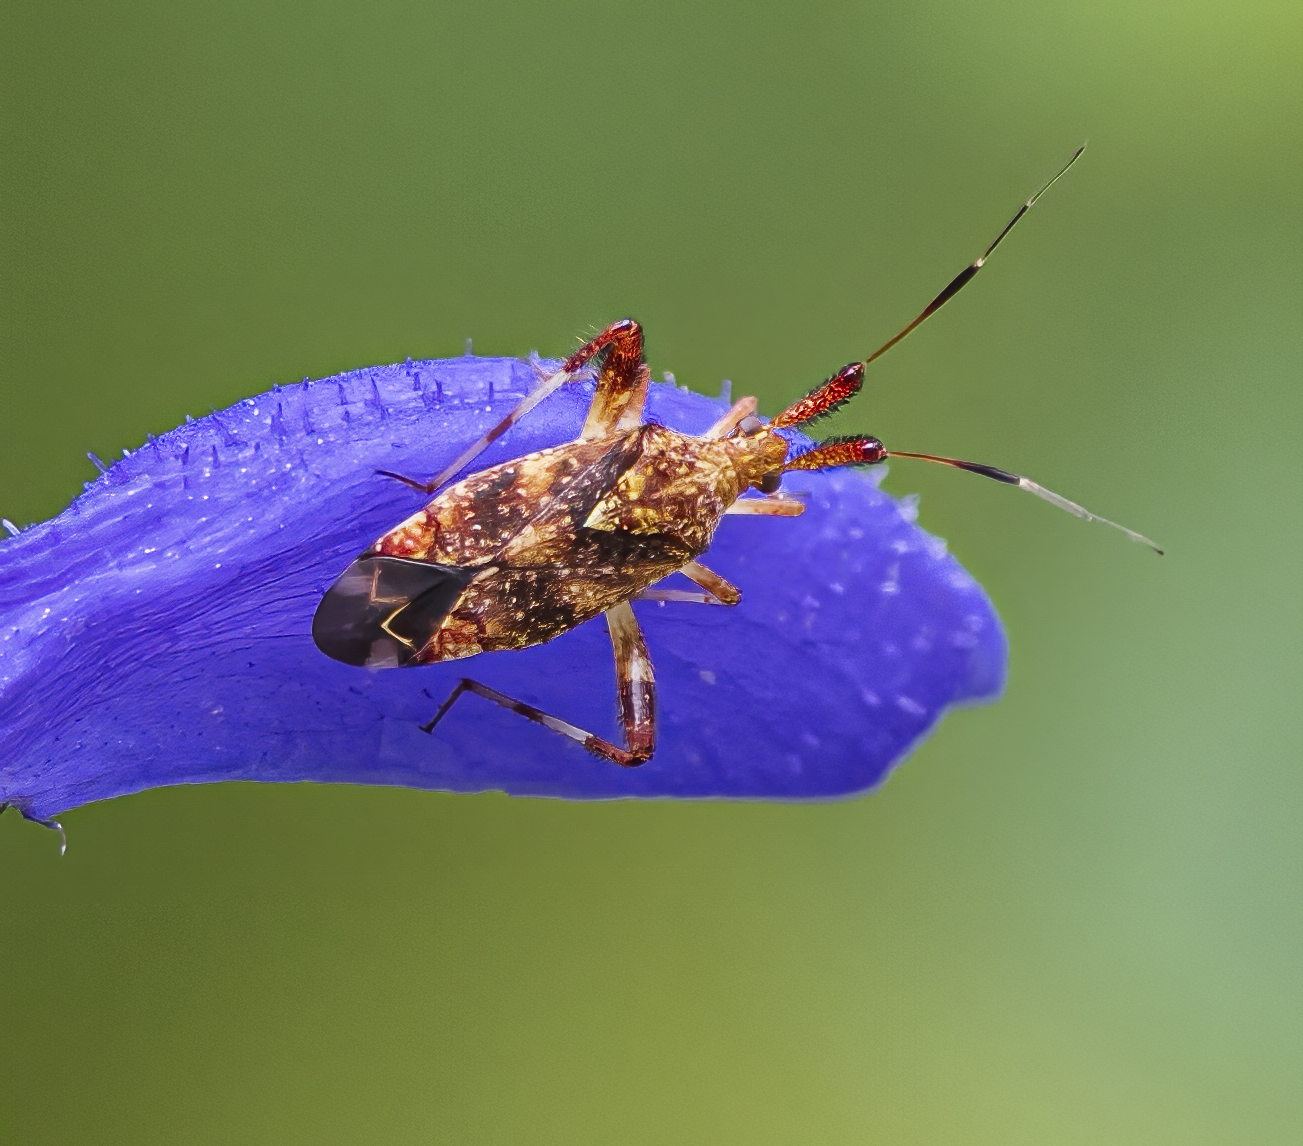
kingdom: Animalia
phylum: Arthropoda
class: Insecta
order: Hemiptera
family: Miridae
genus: Neurocolpus
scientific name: Neurocolpus nubilus
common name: Clouded plant bug
